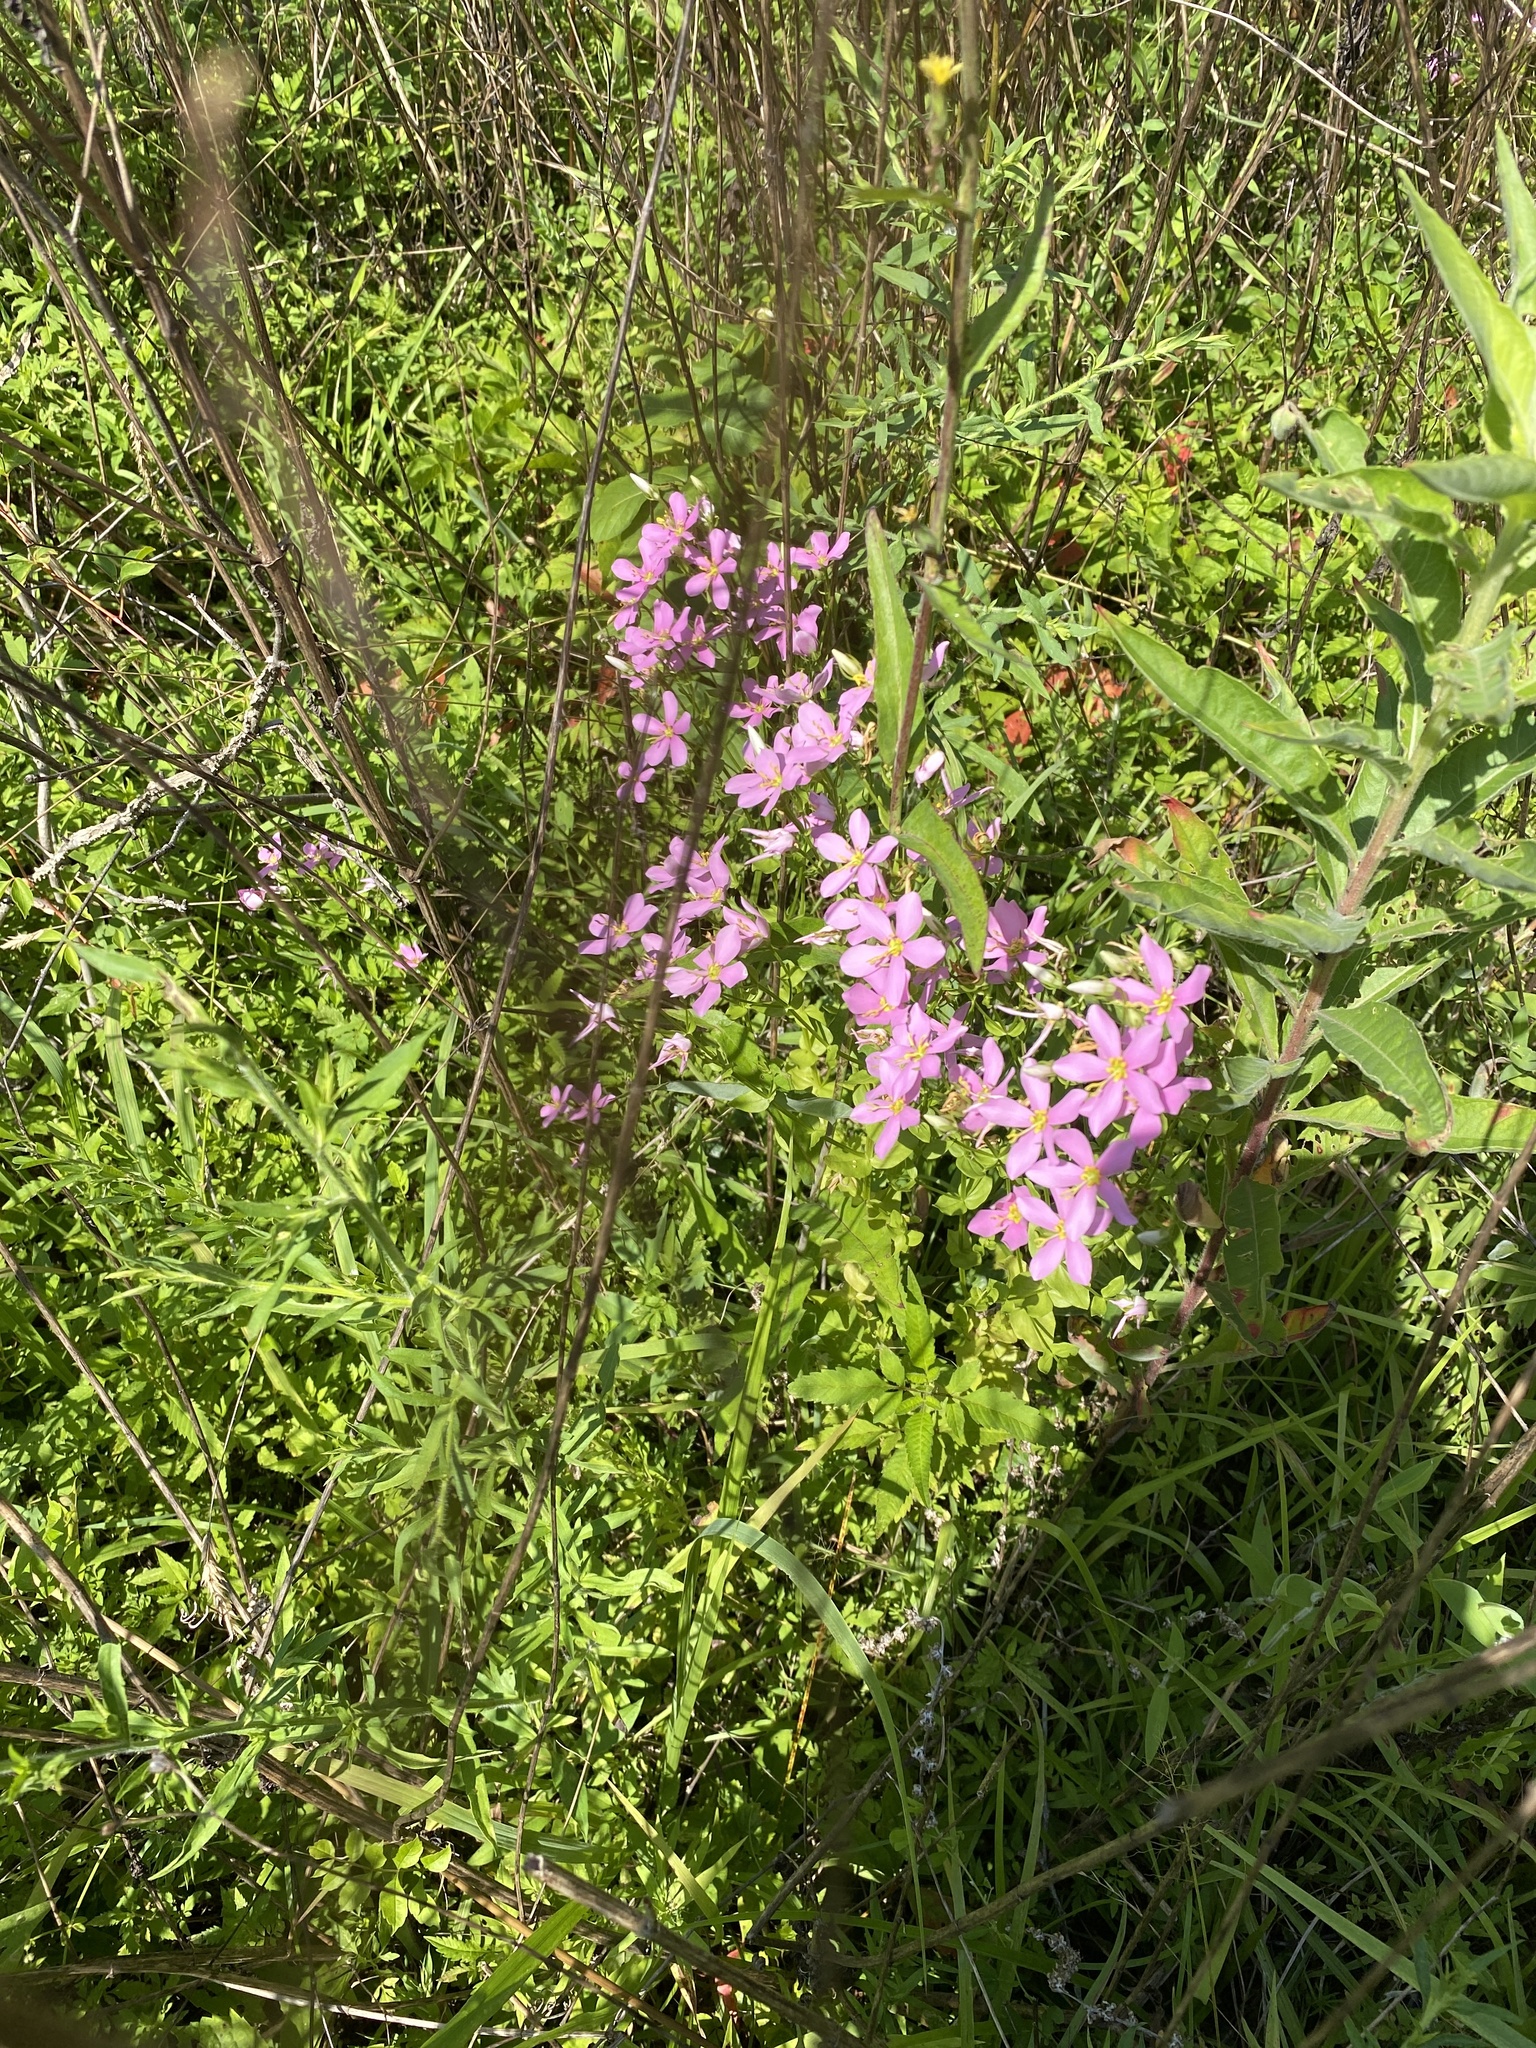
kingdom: Plantae
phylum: Tracheophyta
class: Magnoliopsida
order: Gentianales
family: Gentianaceae
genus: Sabatia
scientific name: Sabatia angularis
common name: Rose-pink
